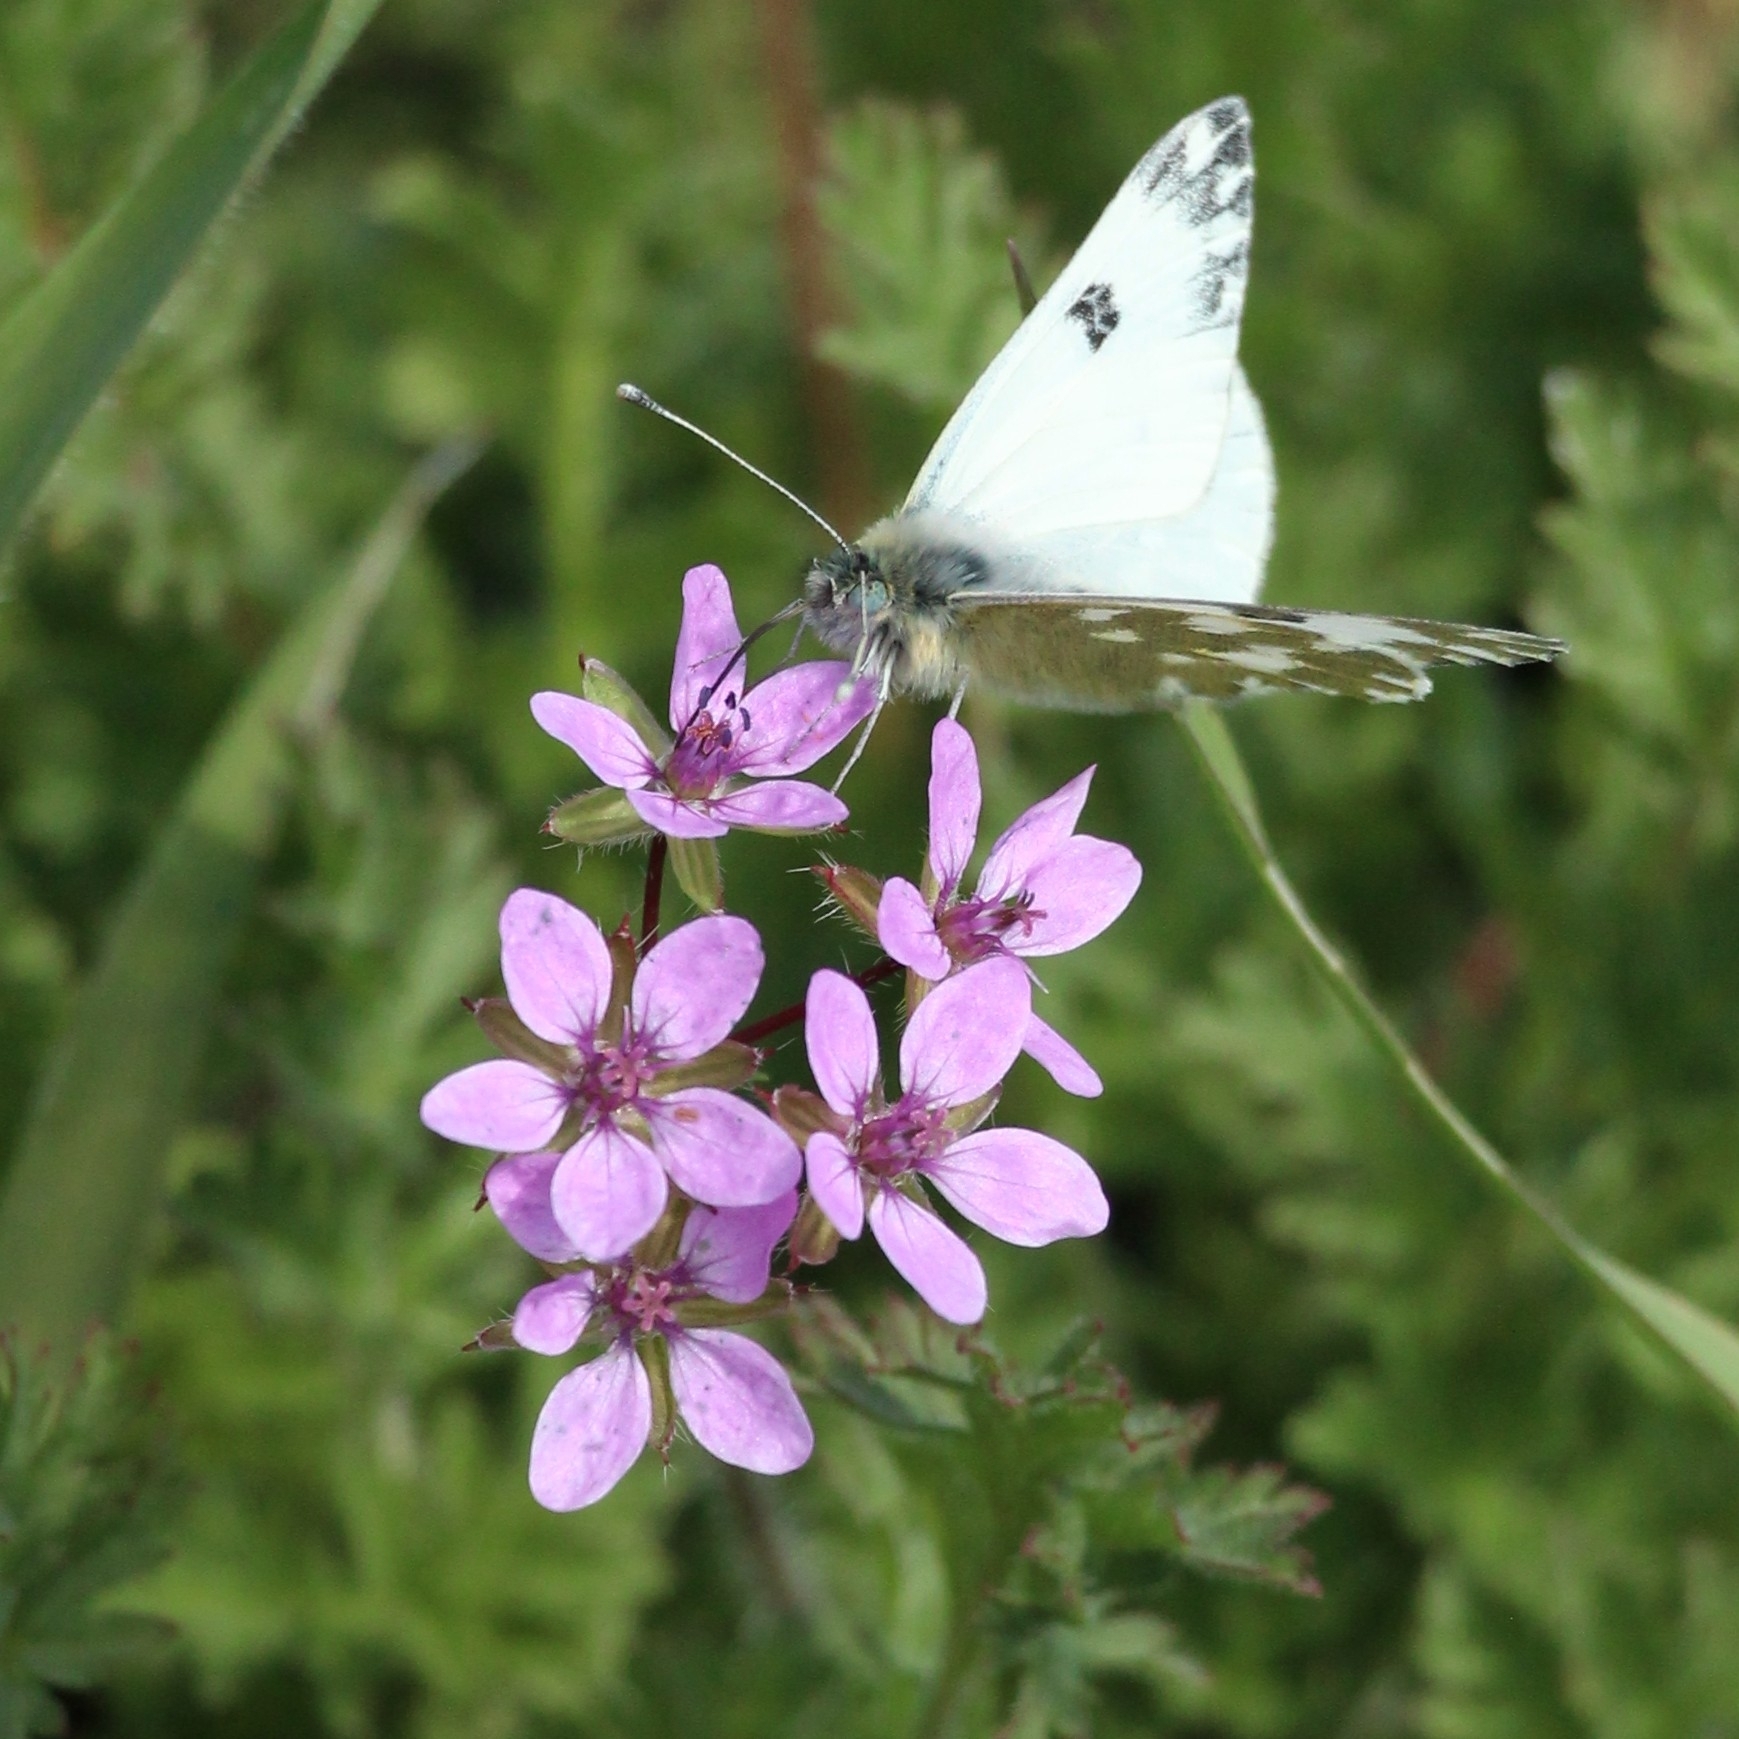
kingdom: Animalia
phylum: Arthropoda
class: Insecta
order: Lepidoptera
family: Pieridae
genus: Pontia
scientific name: Pontia edusa
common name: Eastern bath white
